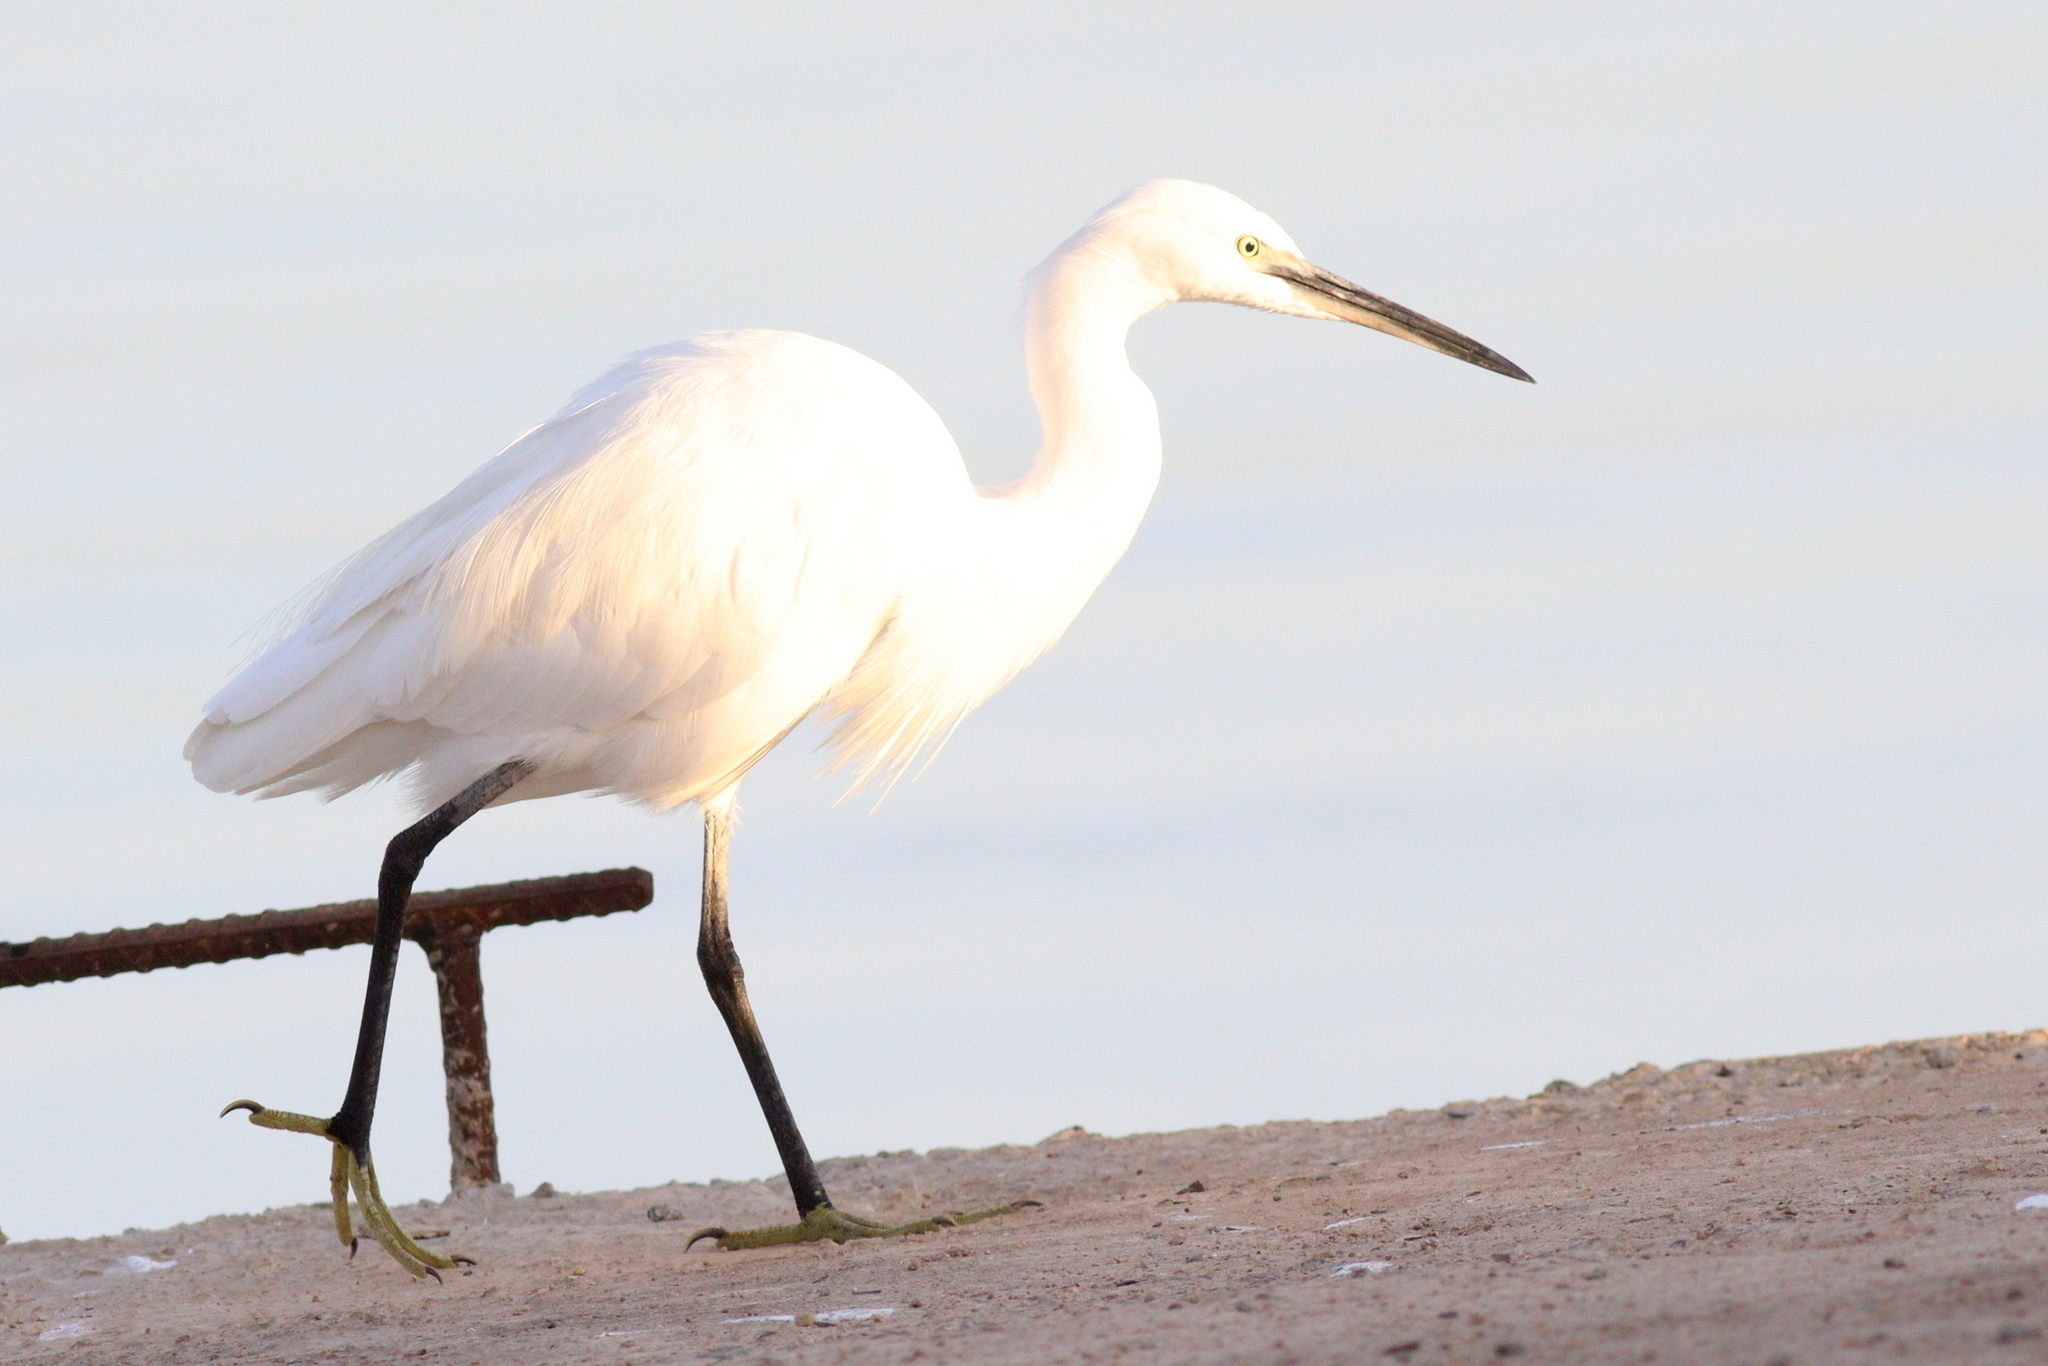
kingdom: Animalia
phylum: Chordata
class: Aves
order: Pelecaniformes
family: Ardeidae
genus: Egretta
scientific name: Egretta garzetta
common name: Little egret
